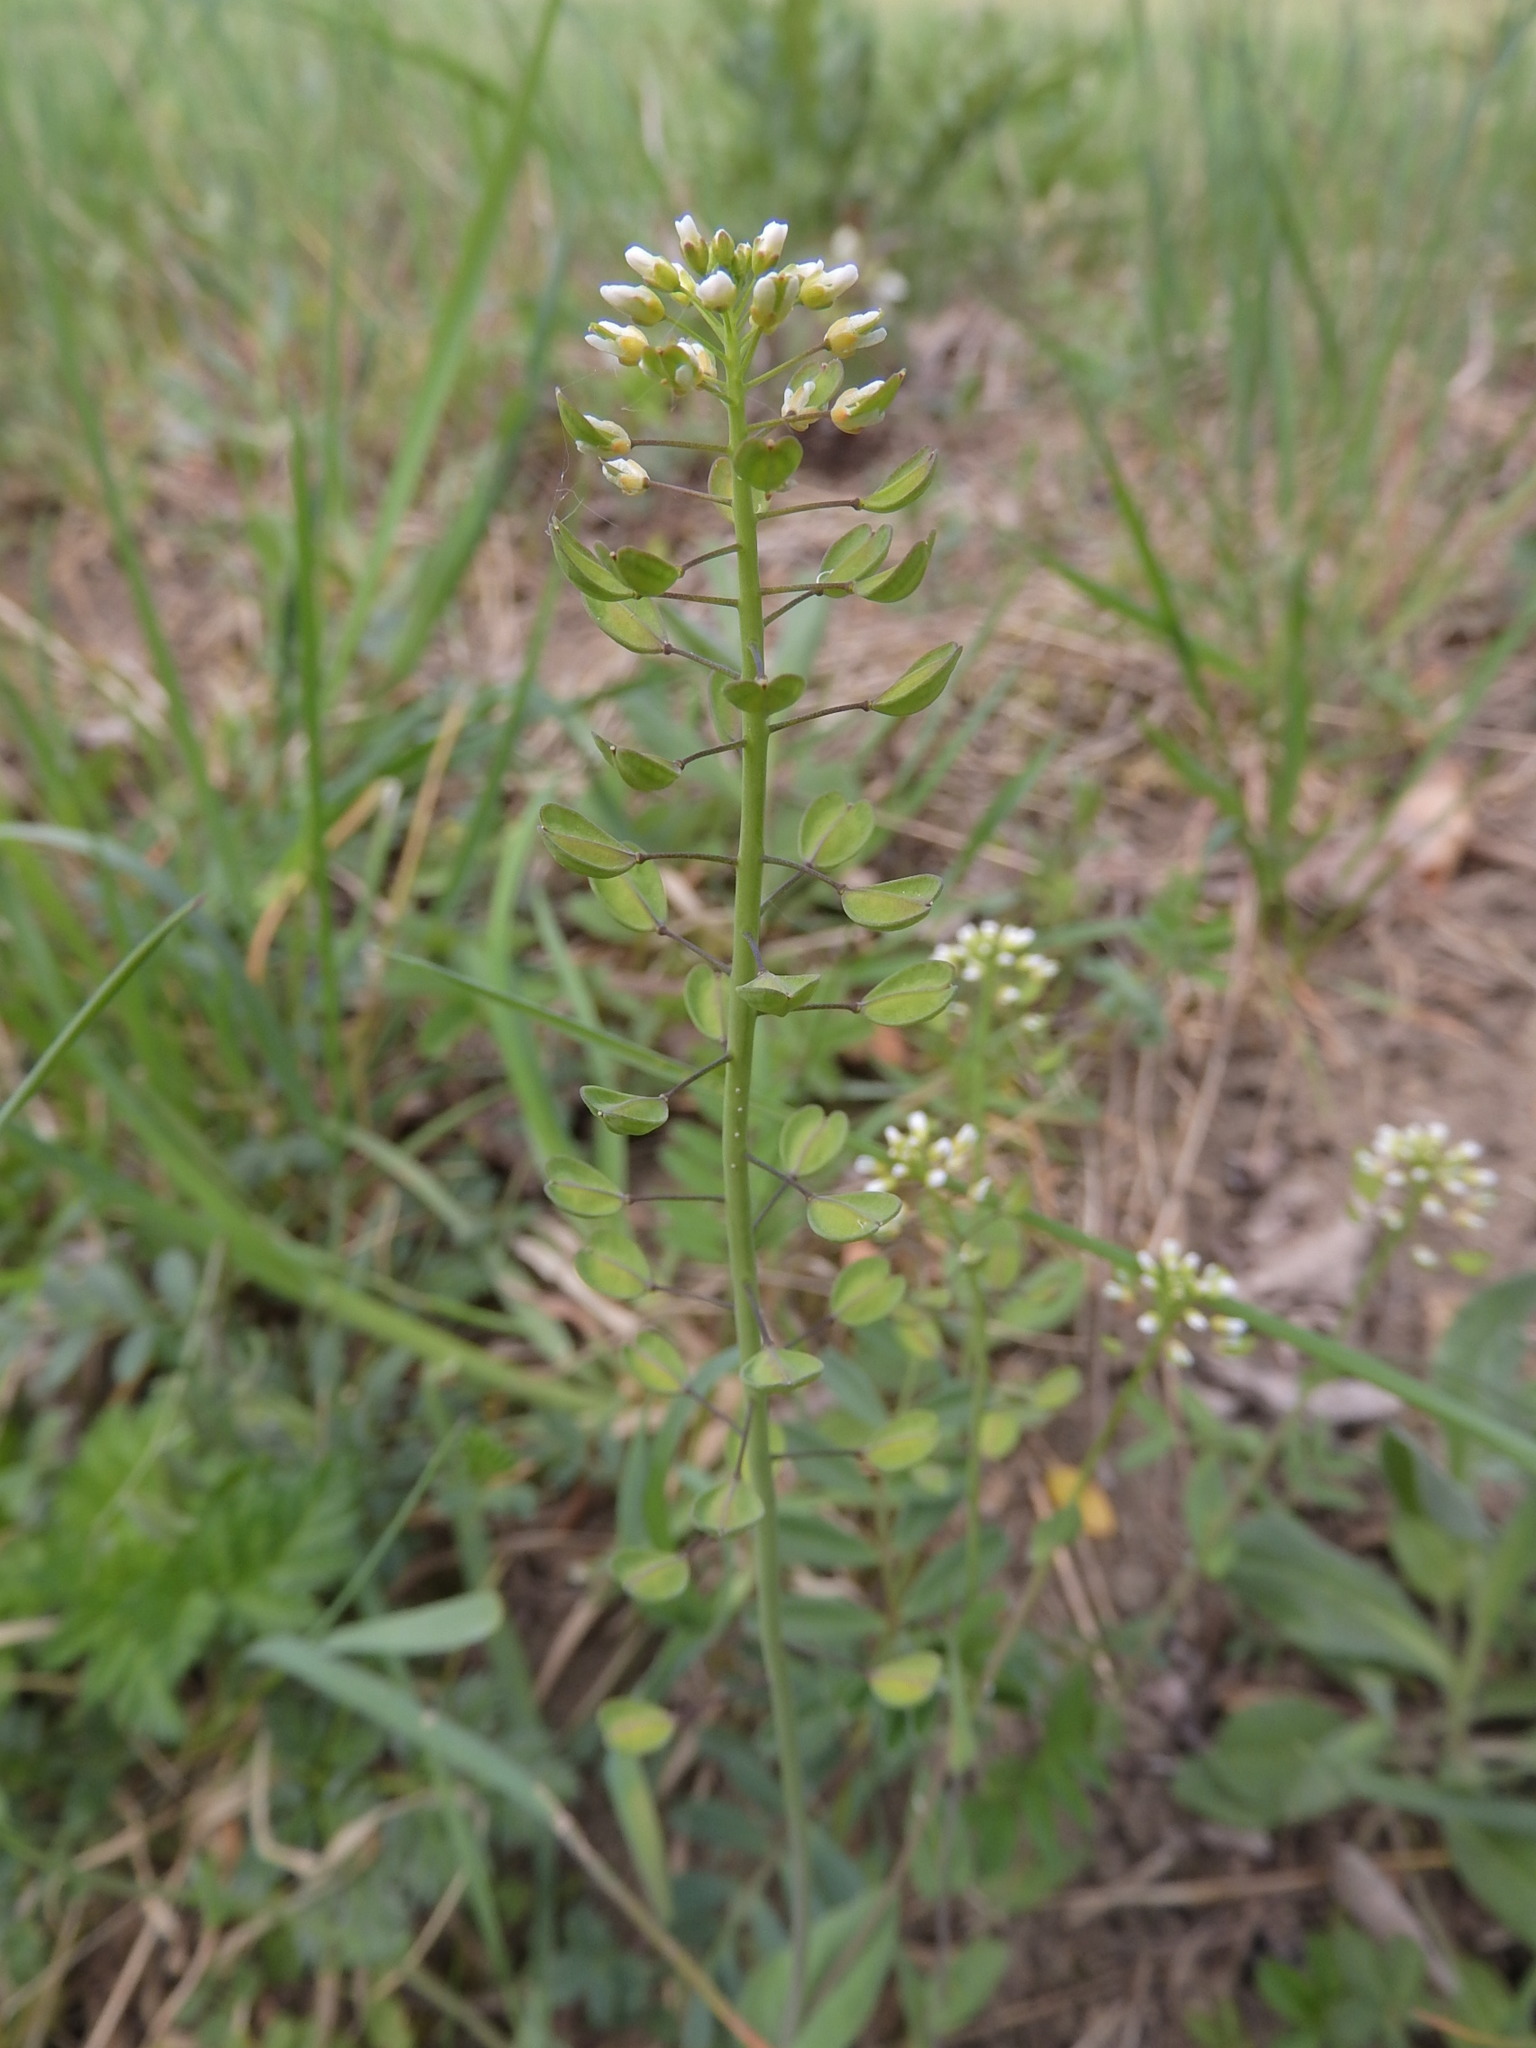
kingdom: Plantae
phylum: Tracheophyta
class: Magnoliopsida
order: Brassicales
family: Brassicaceae
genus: Noccaea
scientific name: Noccaea perfoliata
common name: Perfoliate pennycress
